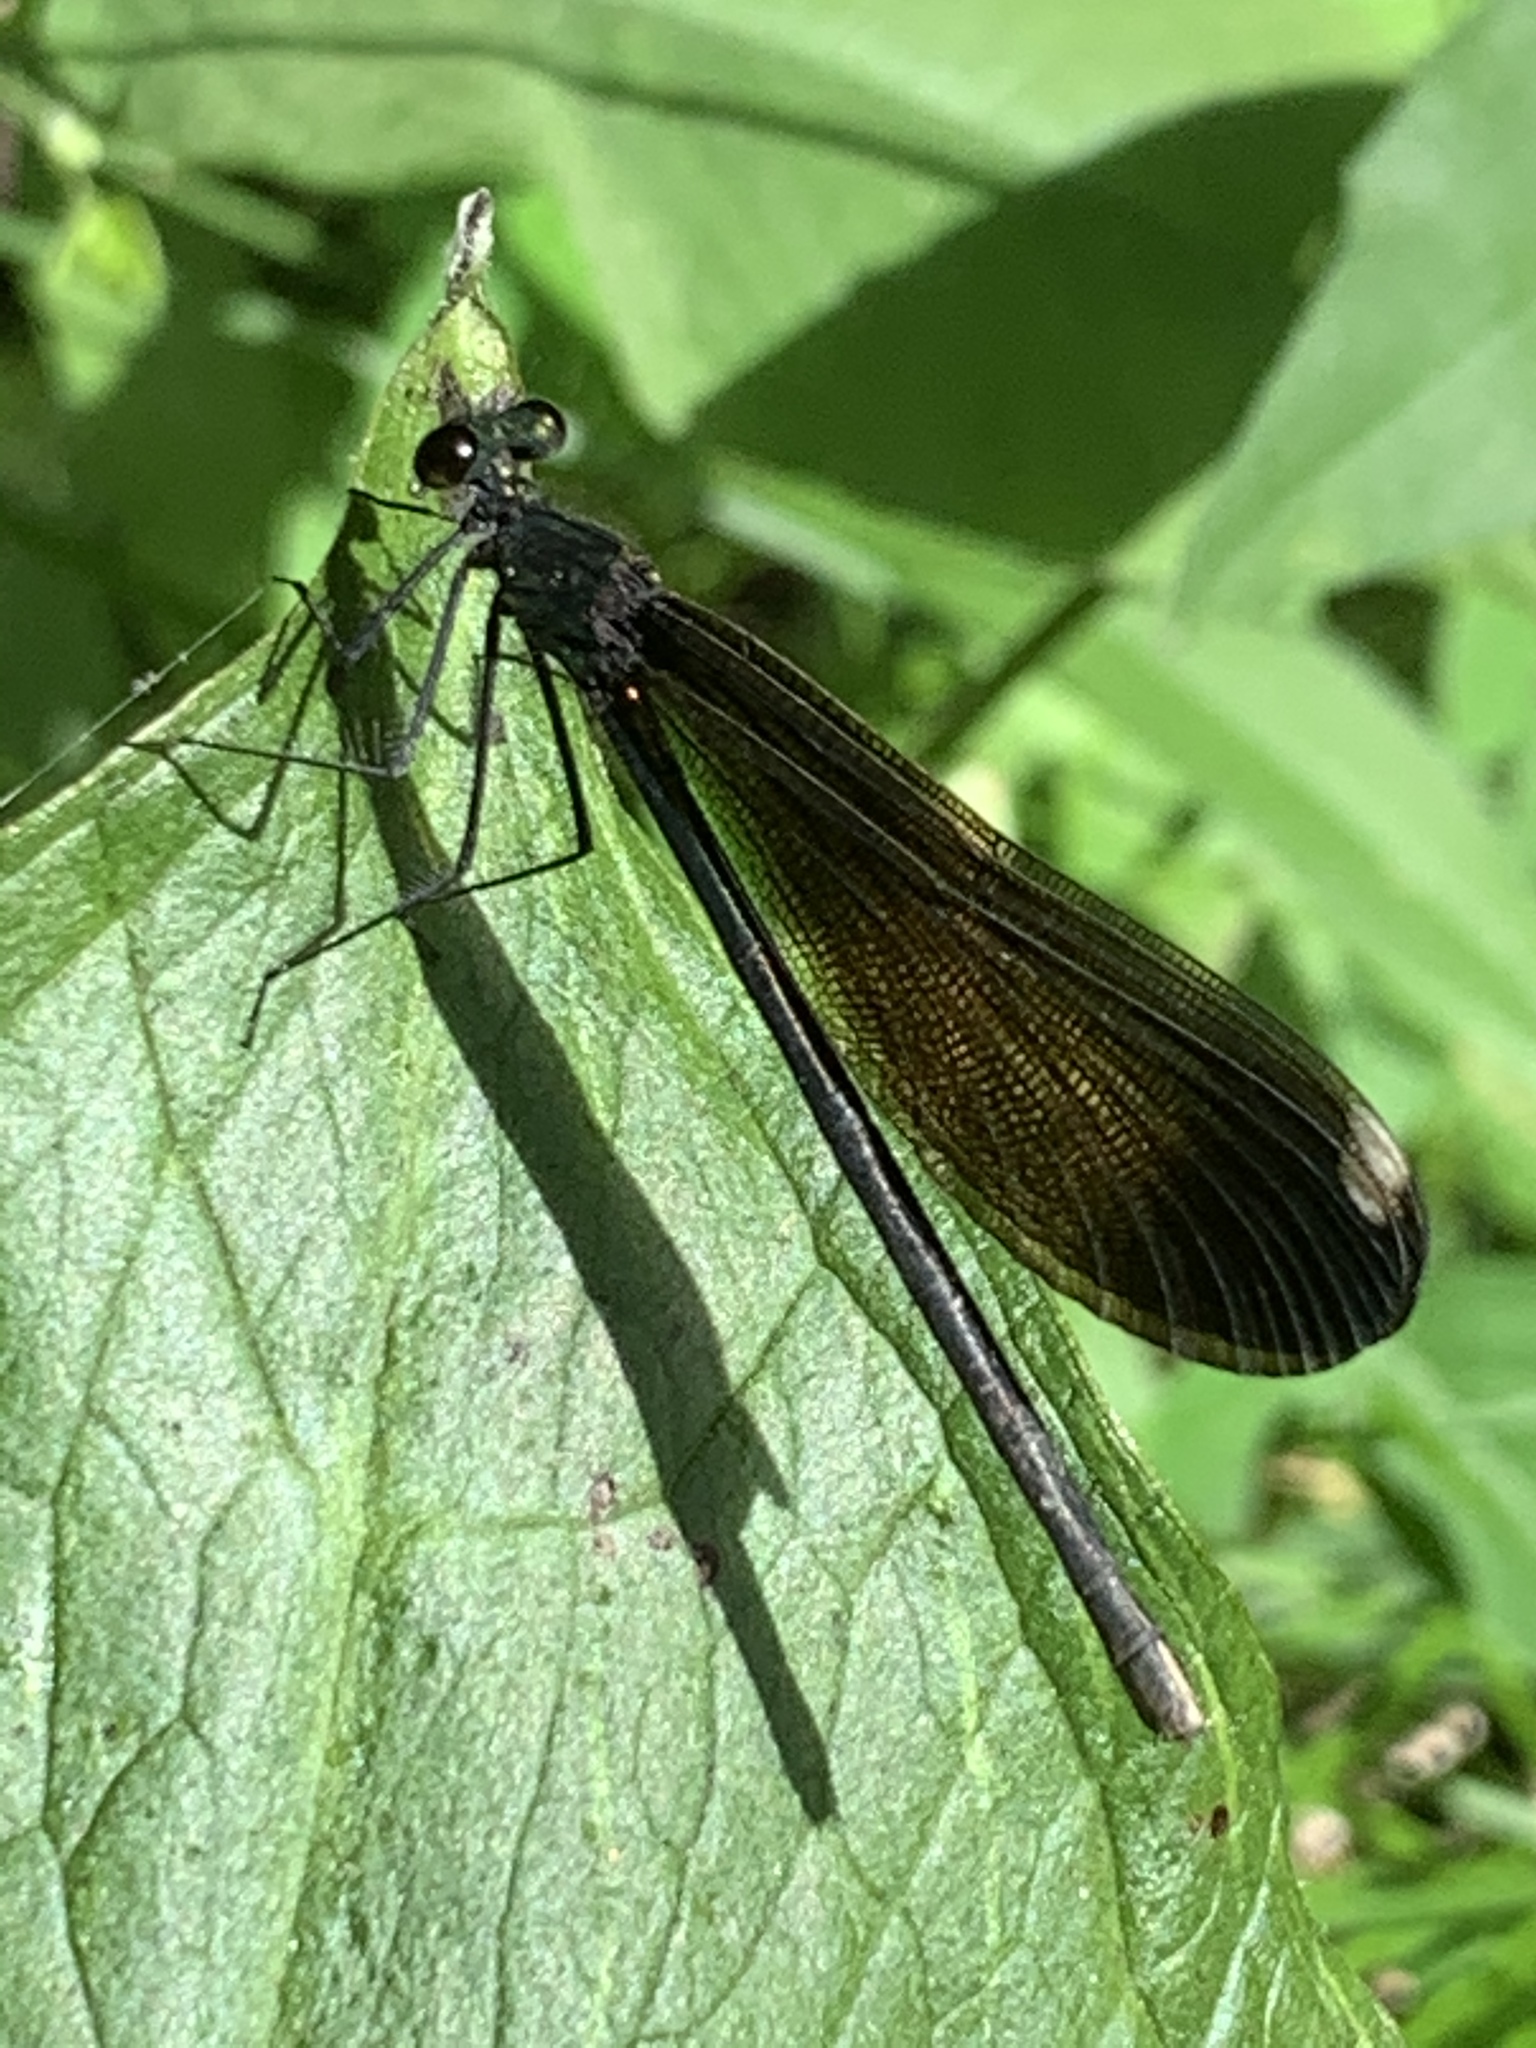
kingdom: Animalia
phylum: Arthropoda
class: Insecta
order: Odonata
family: Calopterygidae
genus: Calopteryx
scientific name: Calopteryx maculata
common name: Ebony jewelwing
